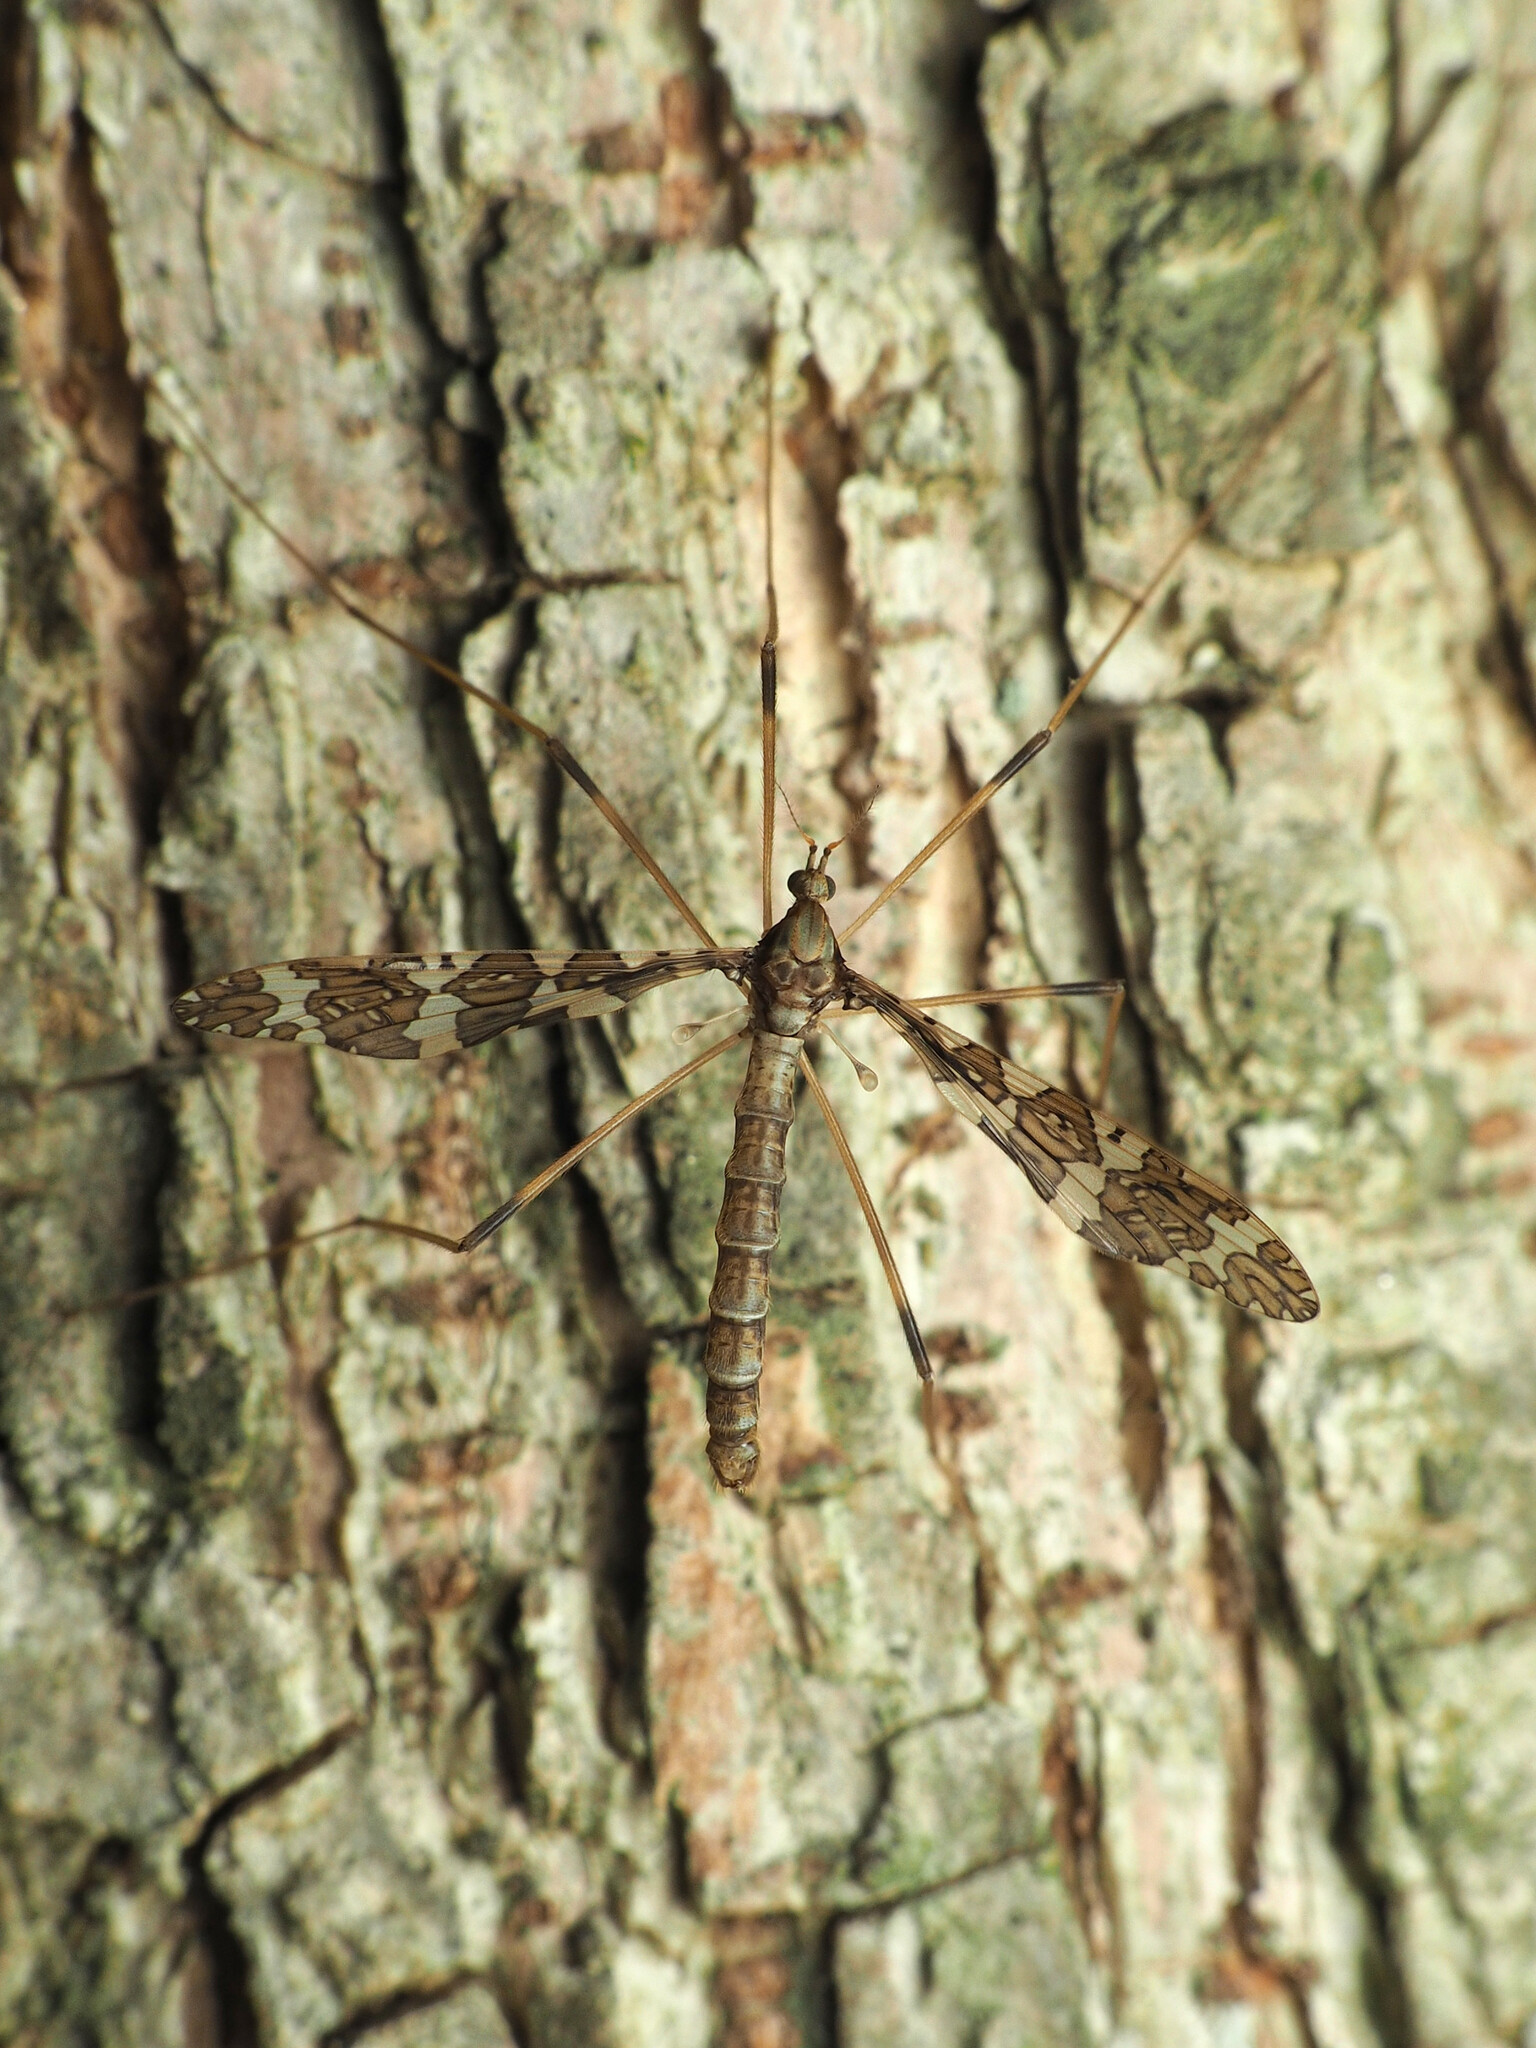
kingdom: Animalia
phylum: Arthropoda
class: Insecta
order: Diptera
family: Limoniidae
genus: Epiphragma
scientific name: Epiphragma fasciapenne
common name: Band-winged crane fly
